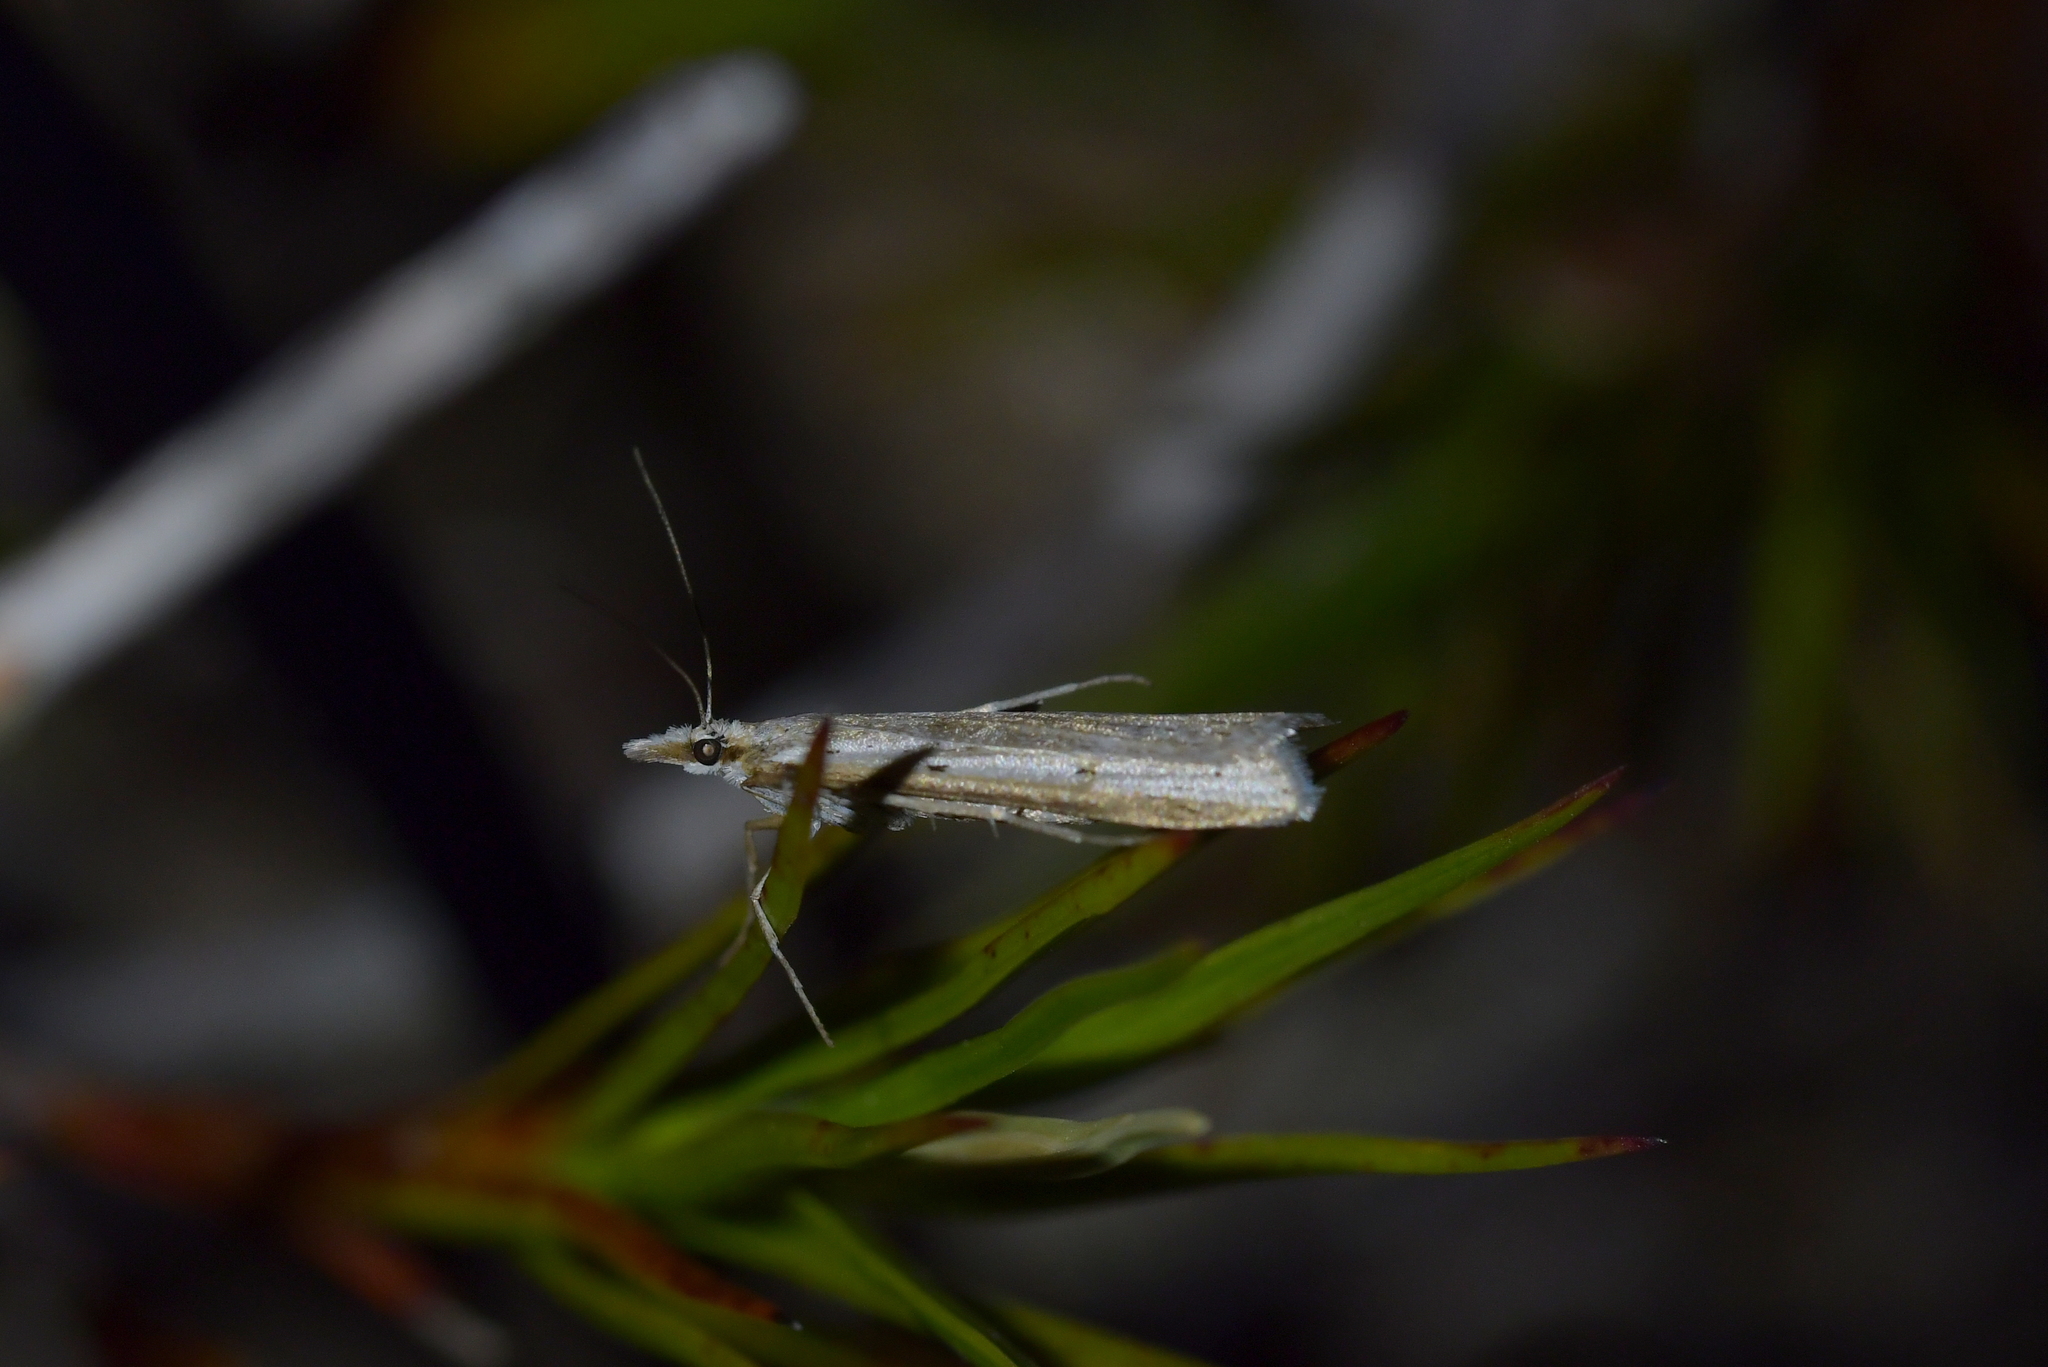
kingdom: Animalia
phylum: Arthropoda
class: Insecta
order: Lepidoptera
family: Crambidae
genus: Scoparia
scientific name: Scoparia niphospora
